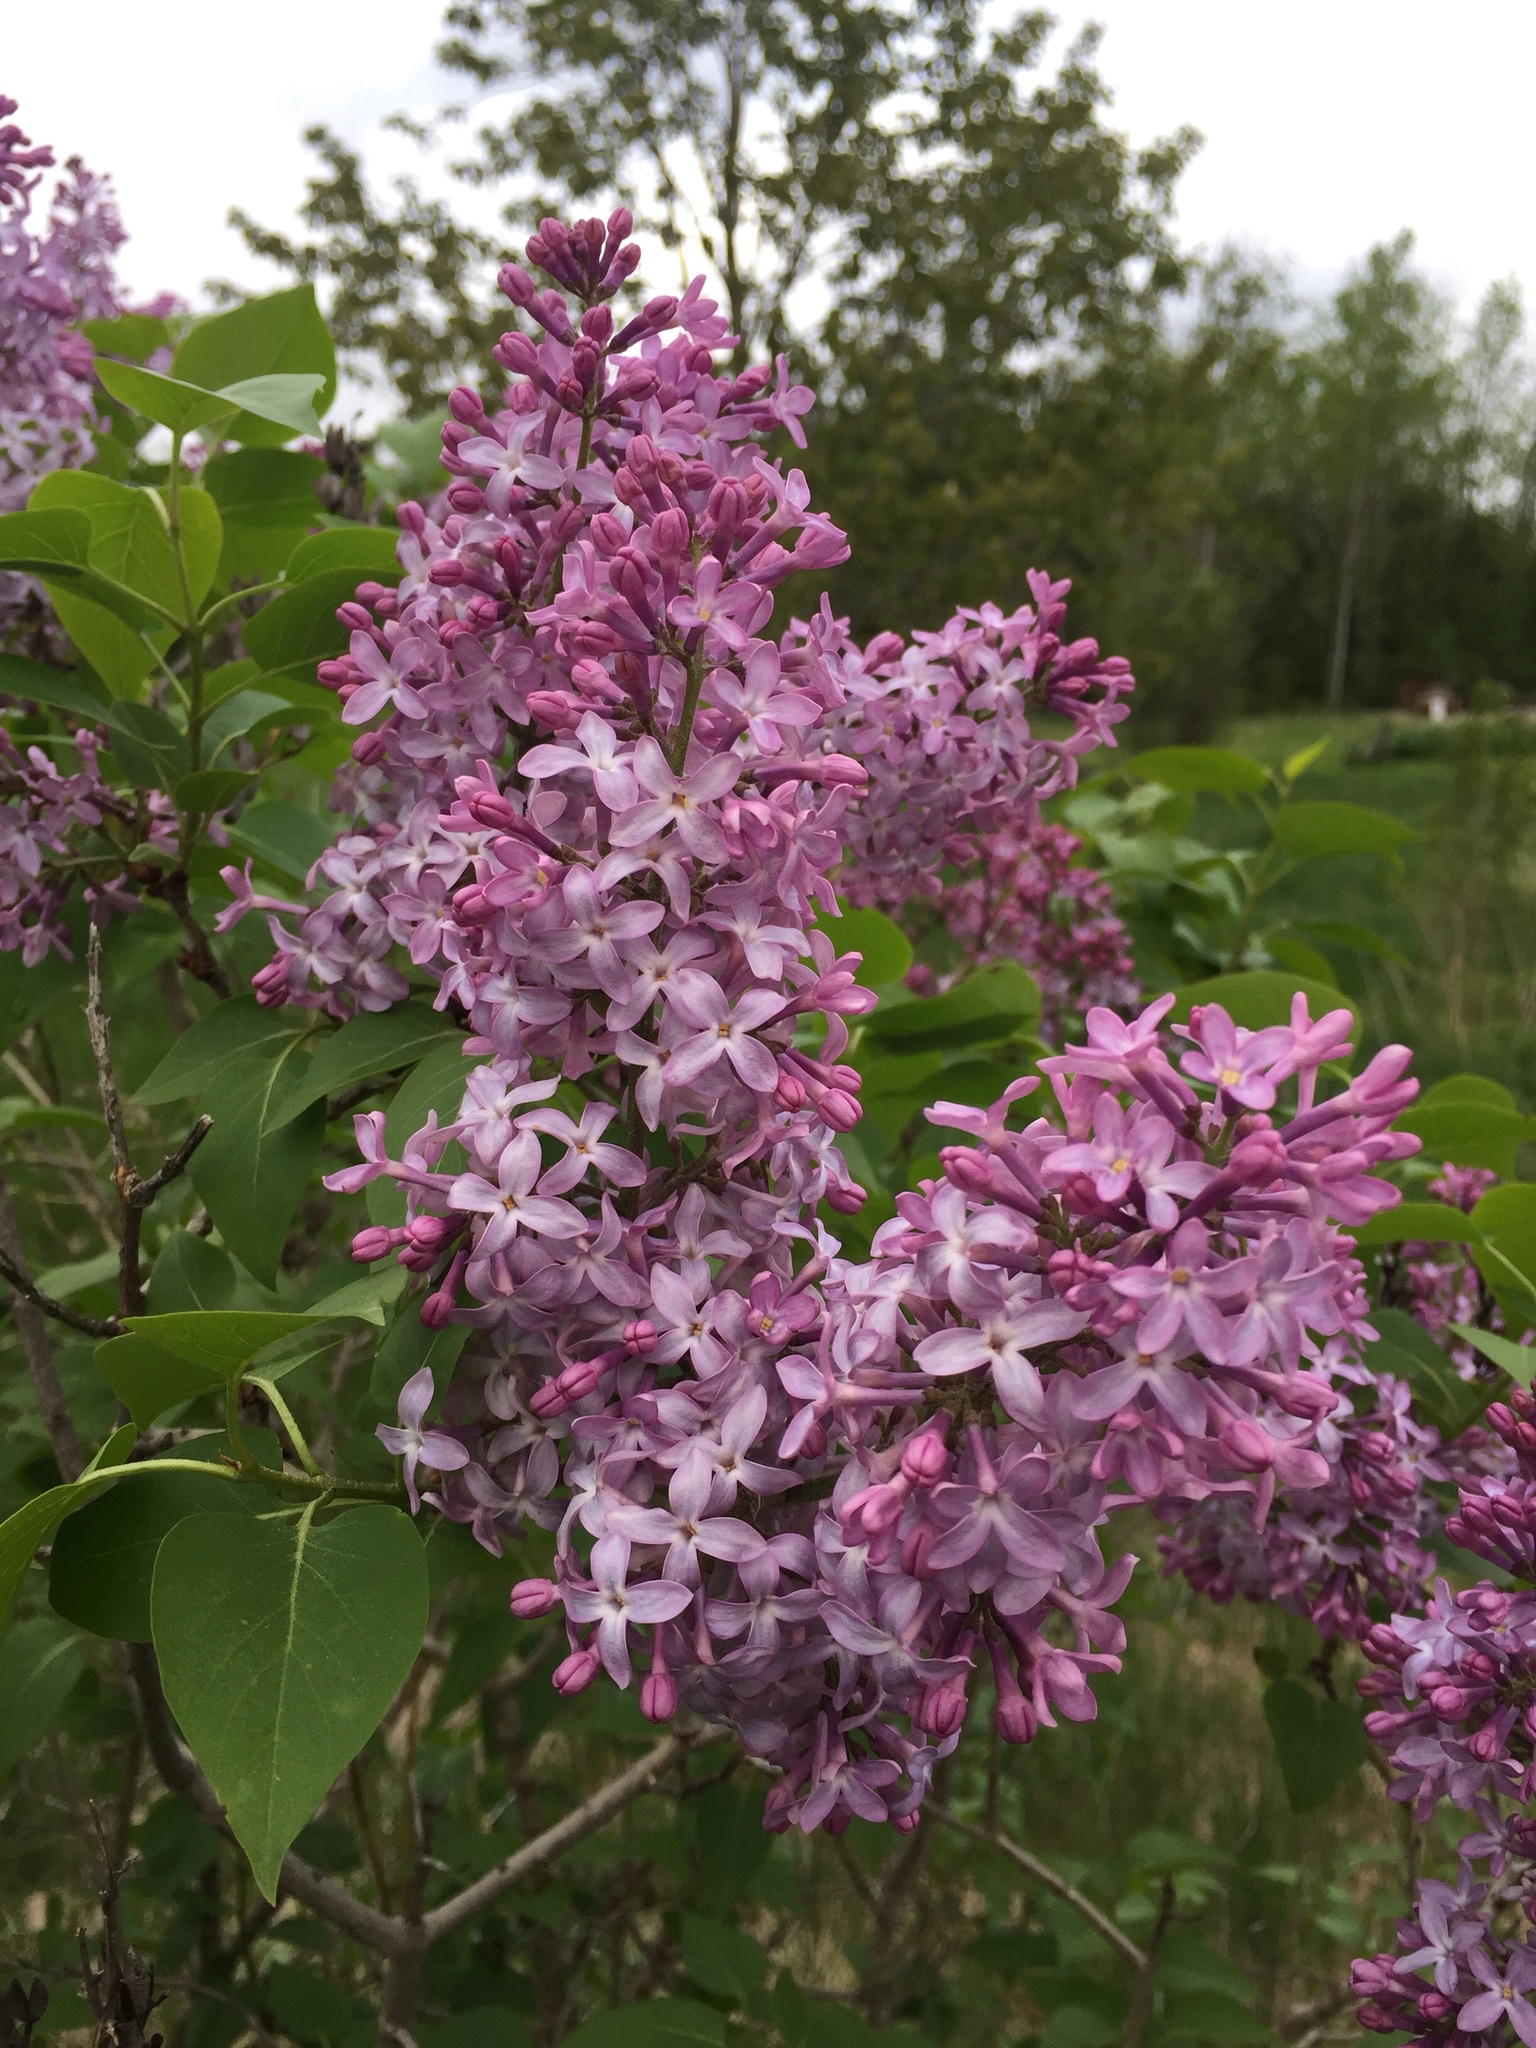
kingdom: Plantae
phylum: Tracheophyta
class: Magnoliopsida
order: Lamiales
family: Oleaceae
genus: Syringa
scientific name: Syringa vulgaris
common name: Common lilac
